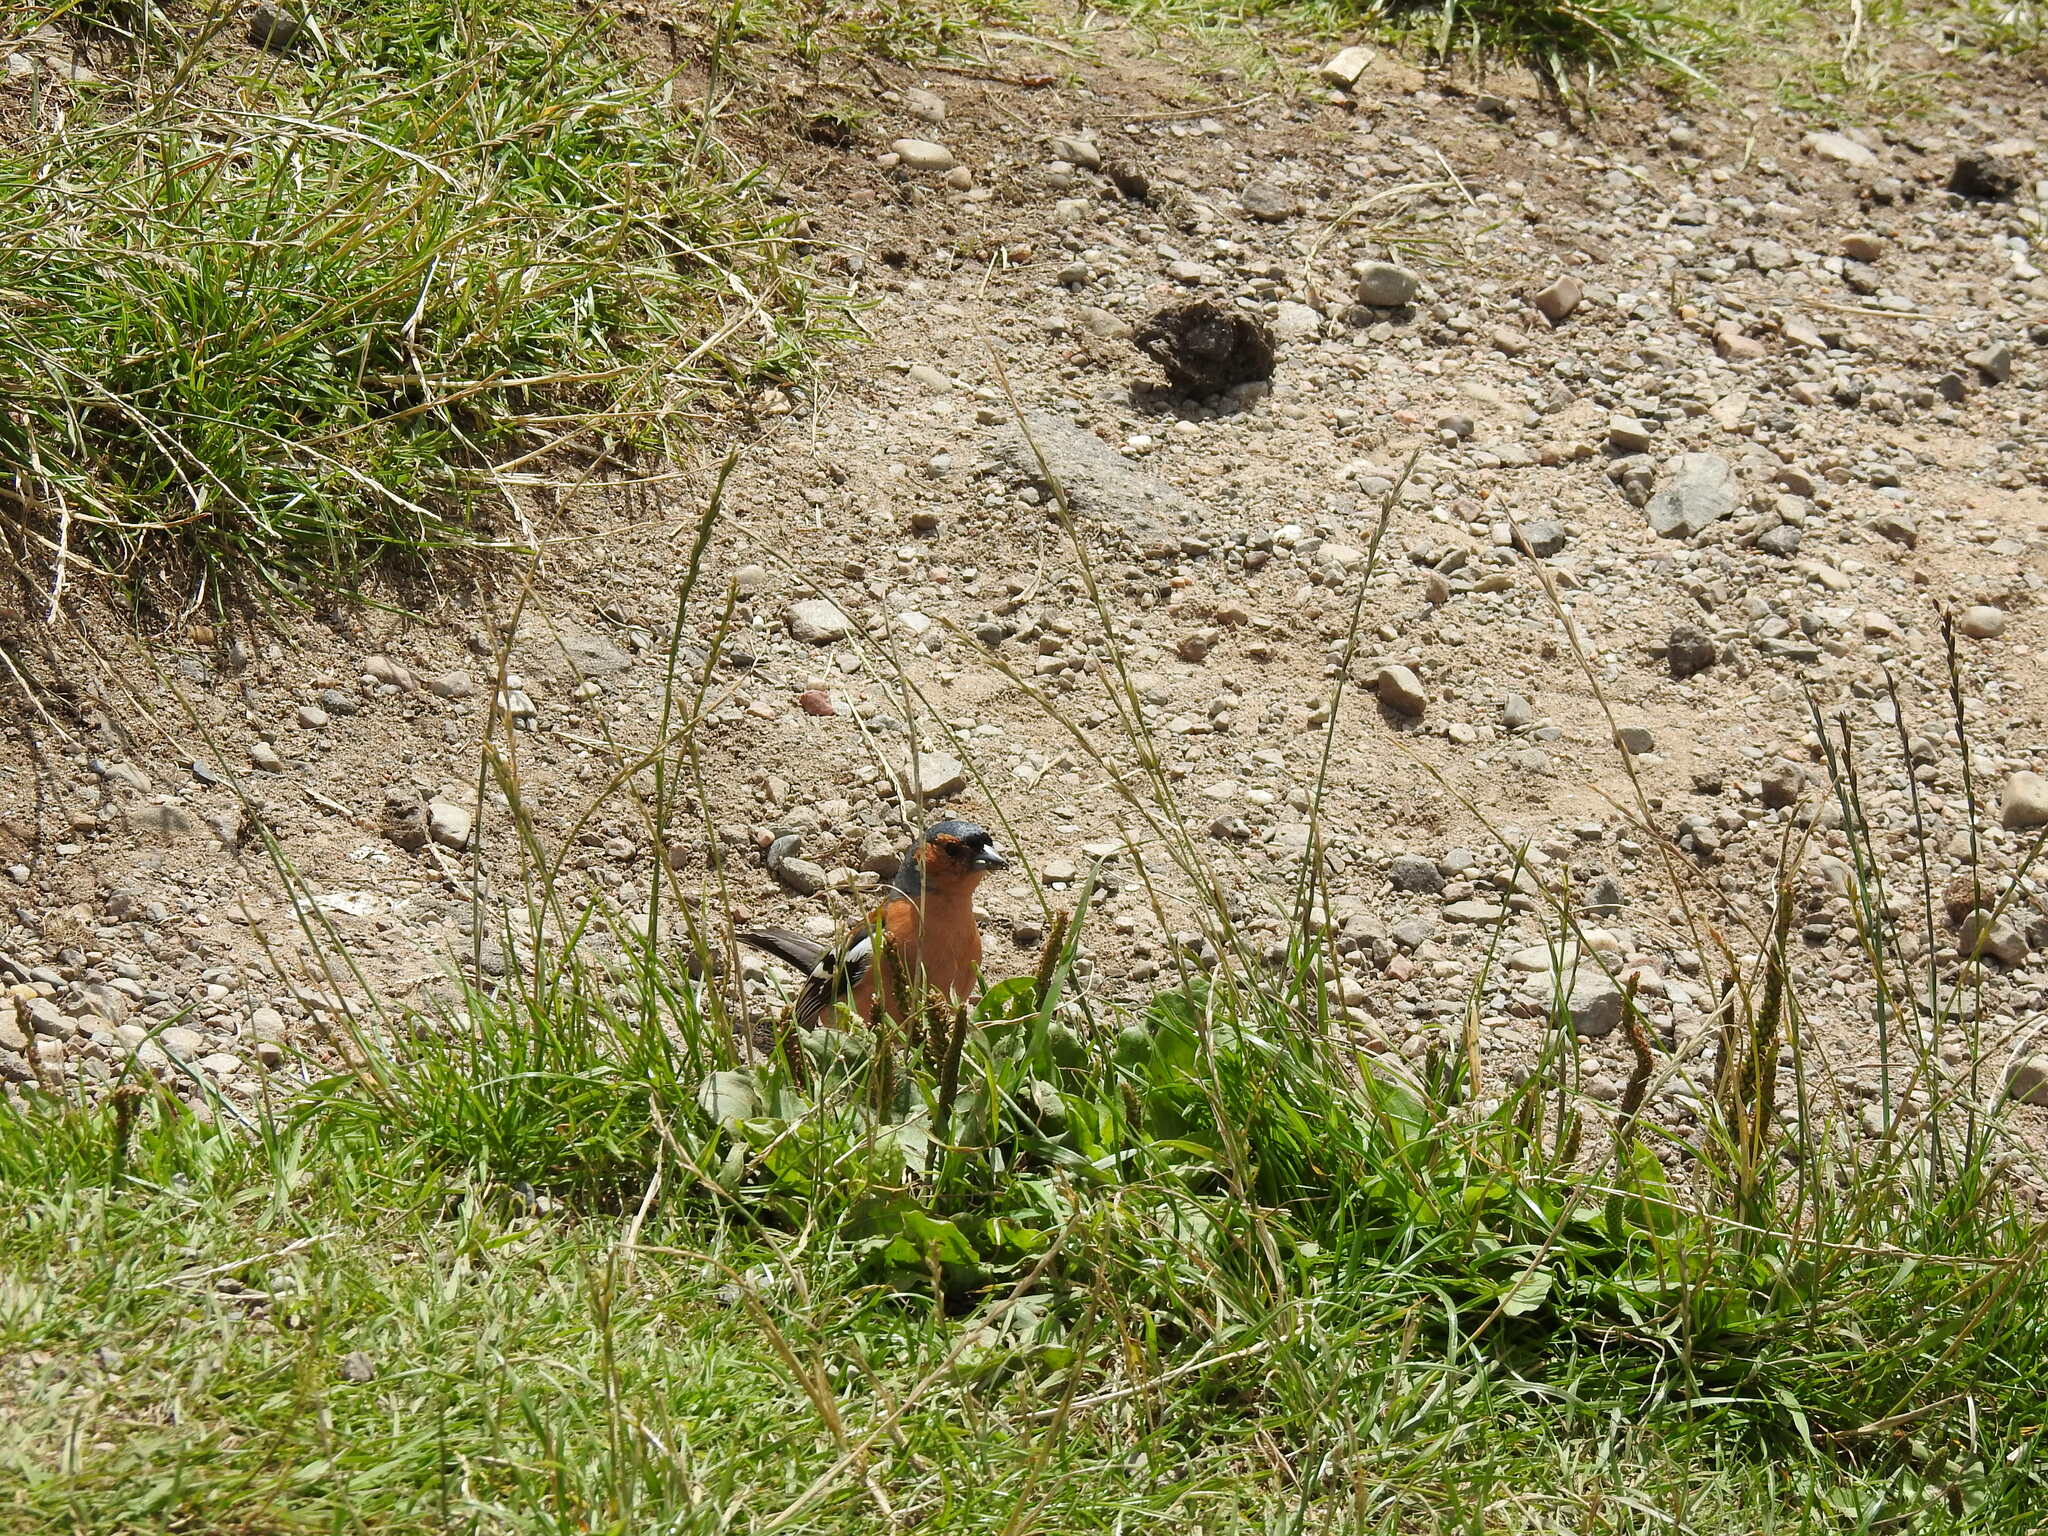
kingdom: Animalia
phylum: Chordata
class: Aves
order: Passeriformes
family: Fringillidae
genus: Fringilla
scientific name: Fringilla coelebs
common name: Common chaffinch
